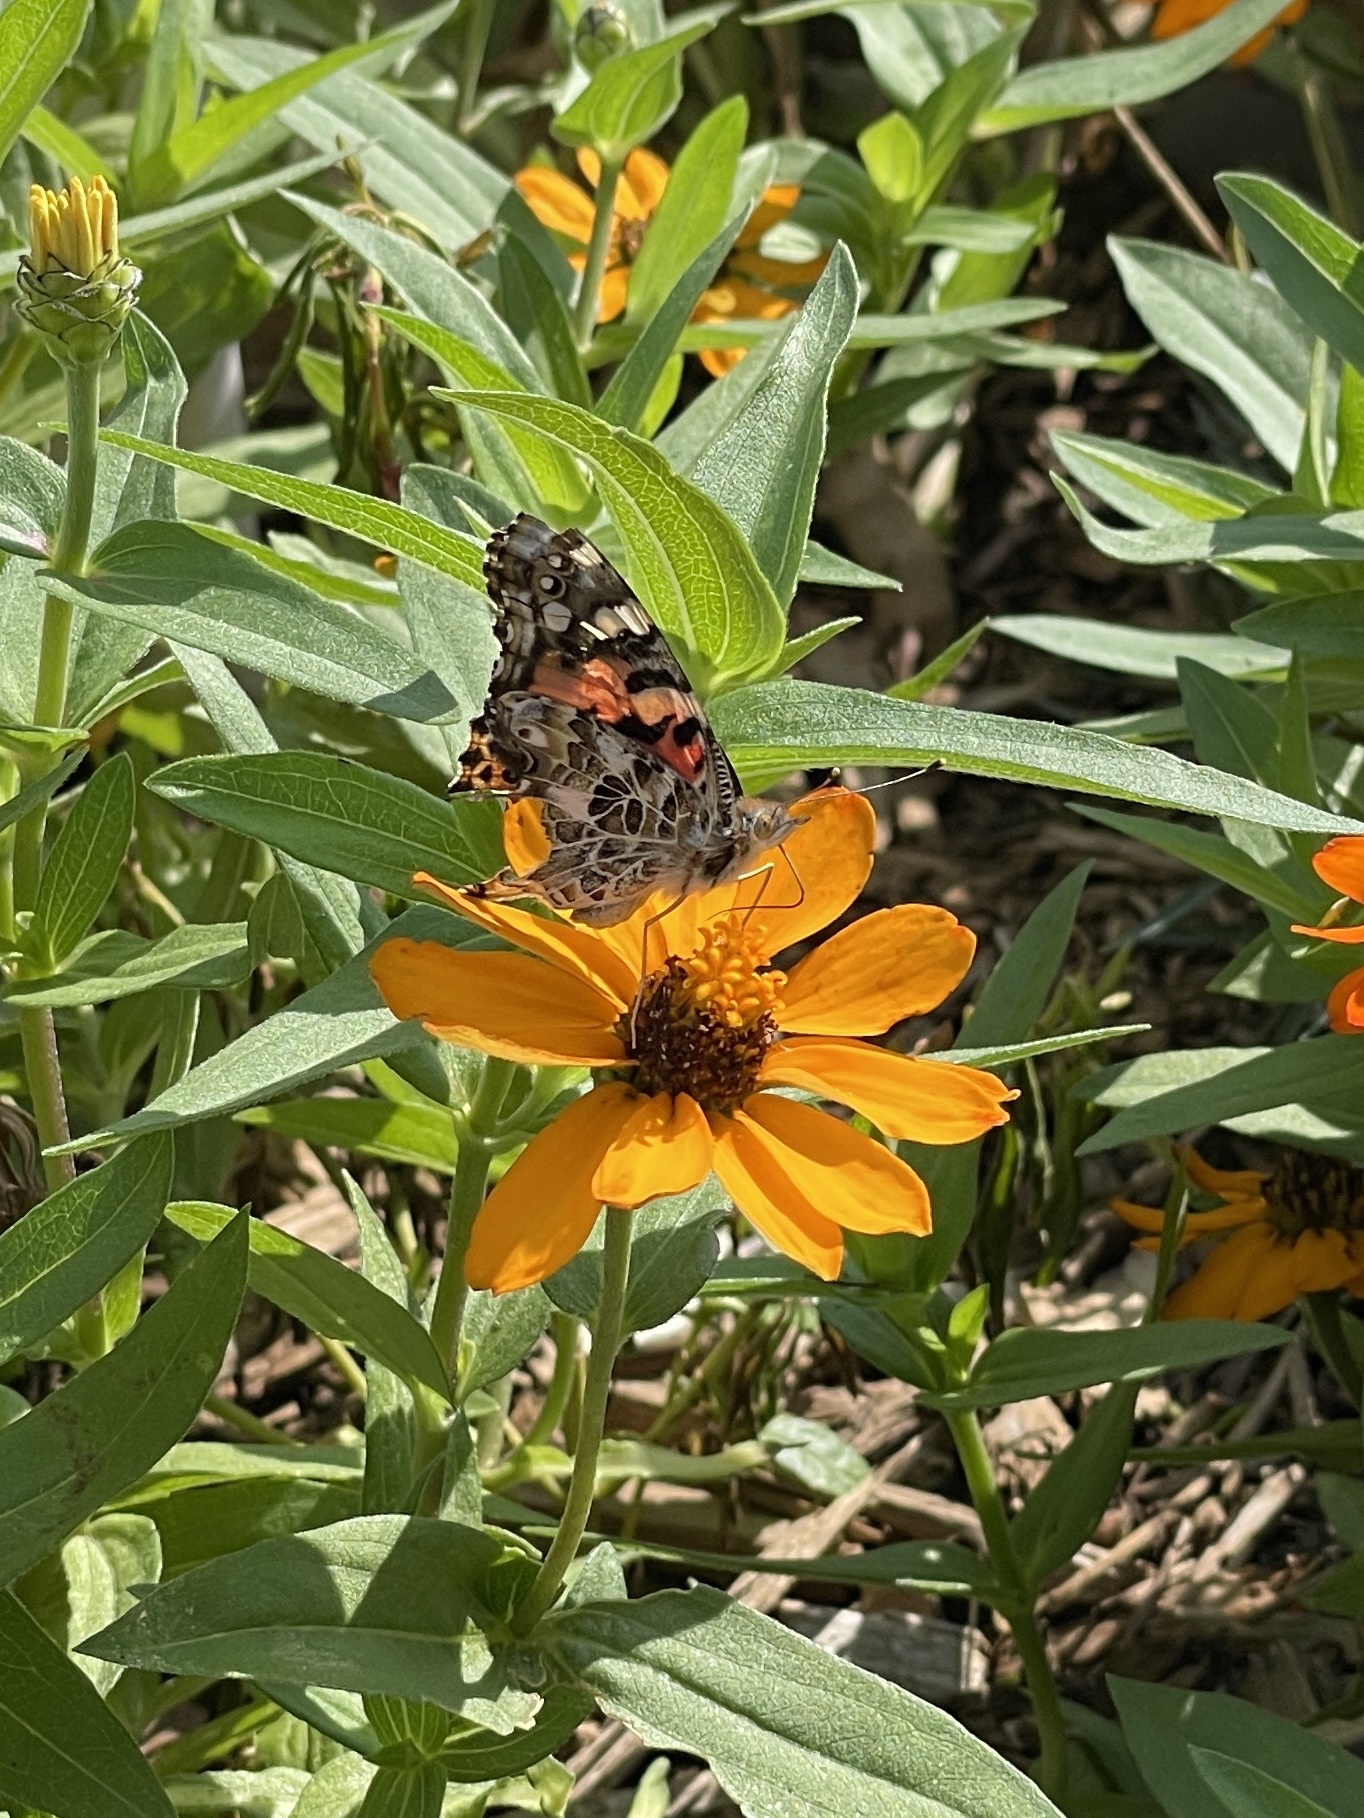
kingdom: Animalia
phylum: Arthropoda
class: Insecta
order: Lepidoptera
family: Nymphalidae
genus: Vanessa
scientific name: Vanessa cardui
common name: Painted lady
